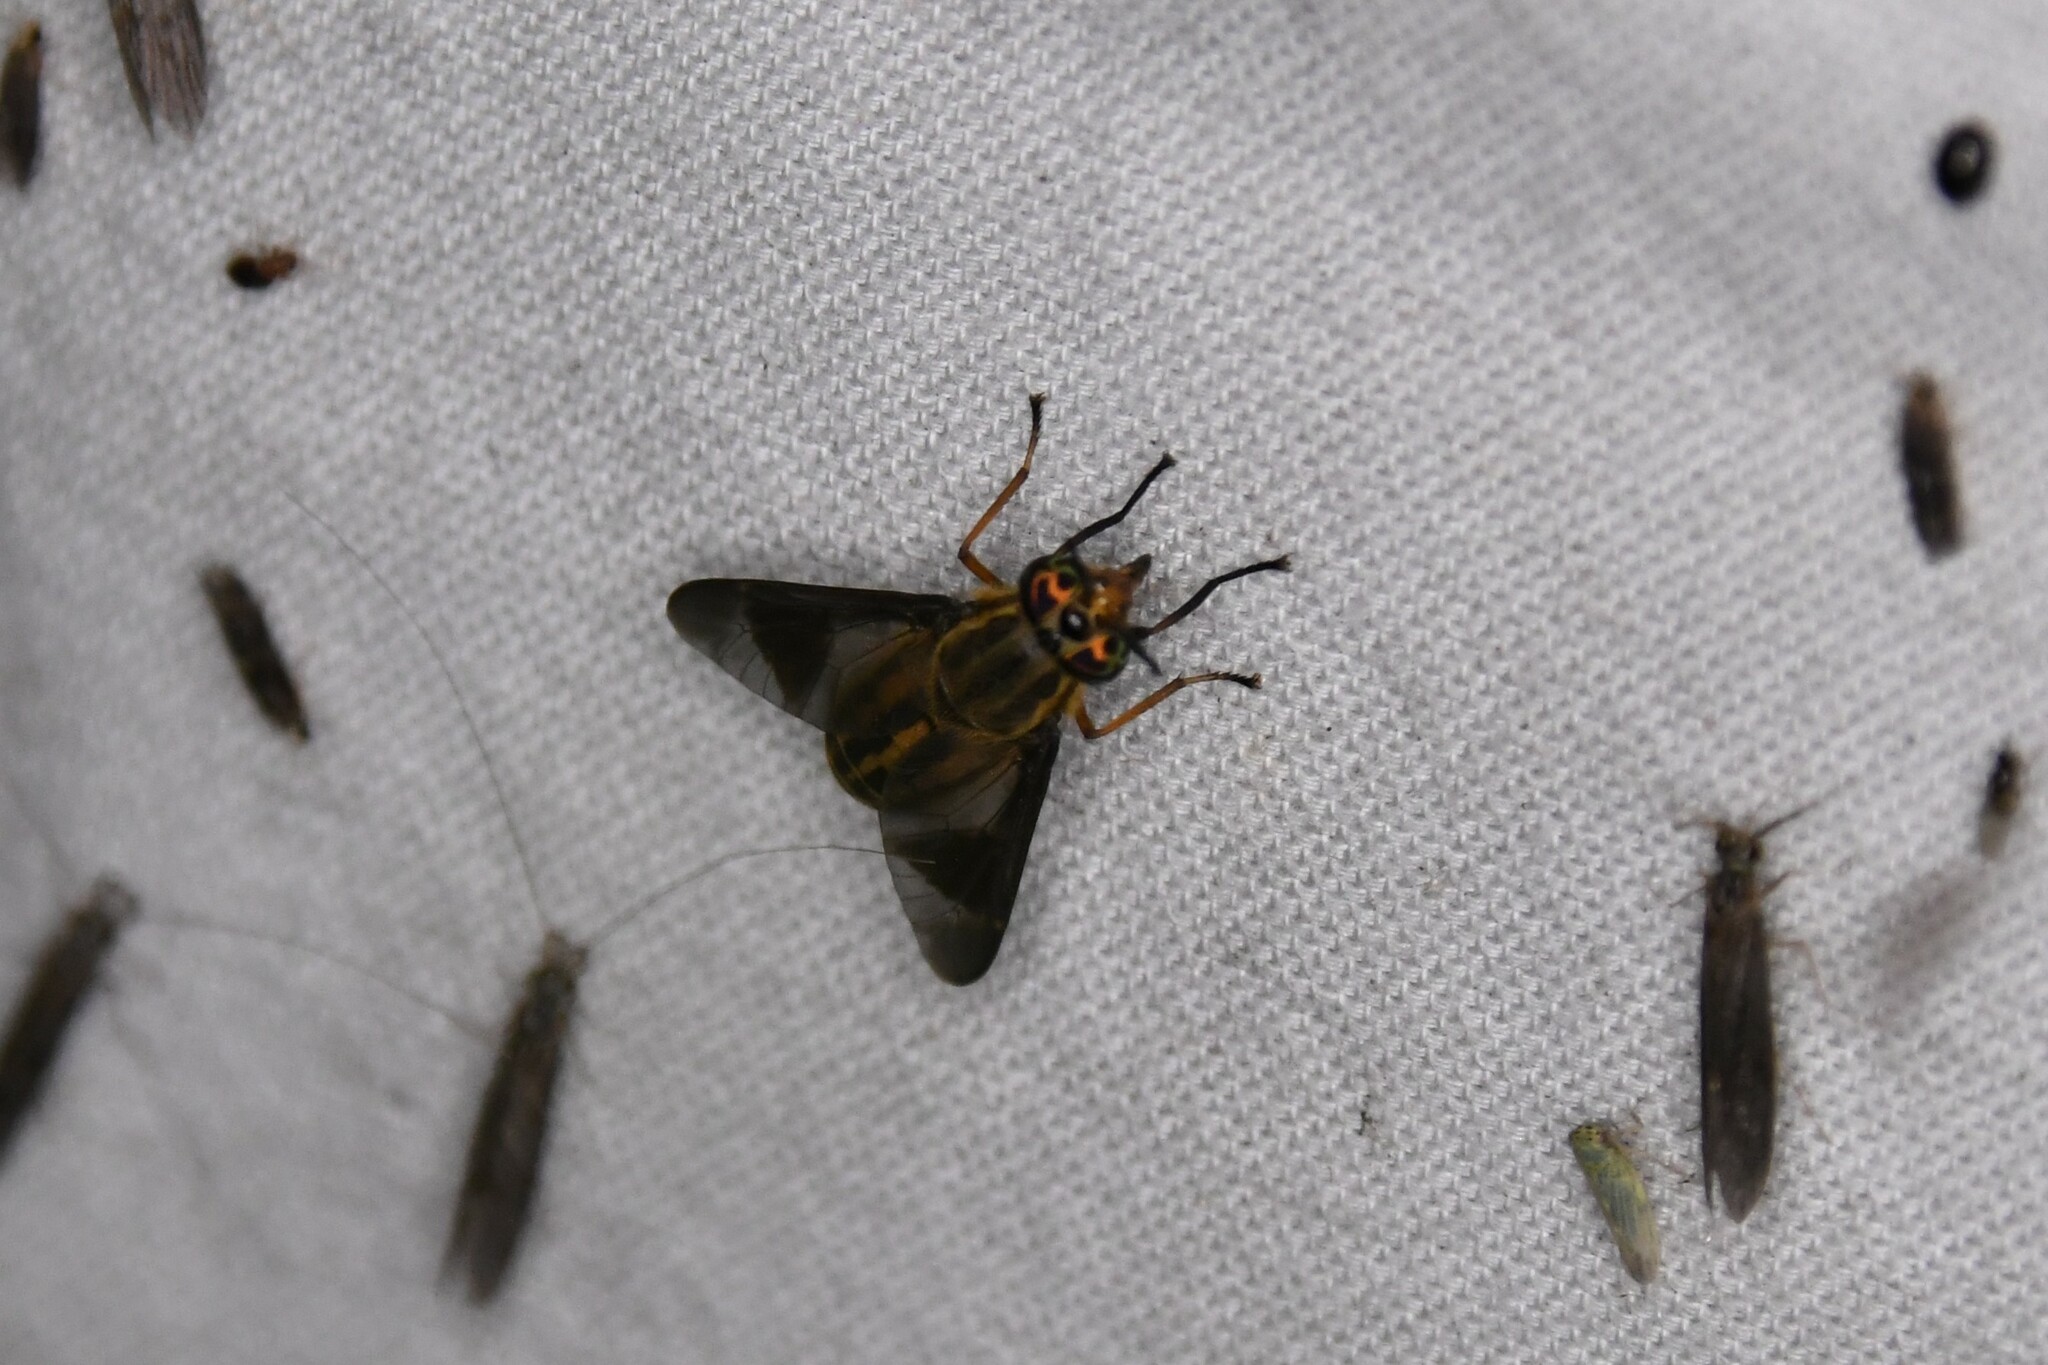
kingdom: Animalia
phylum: Arthropoda
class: Insecta
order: Diptera
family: Tabanidae
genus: Chrysops
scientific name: Chrysops aberrans
